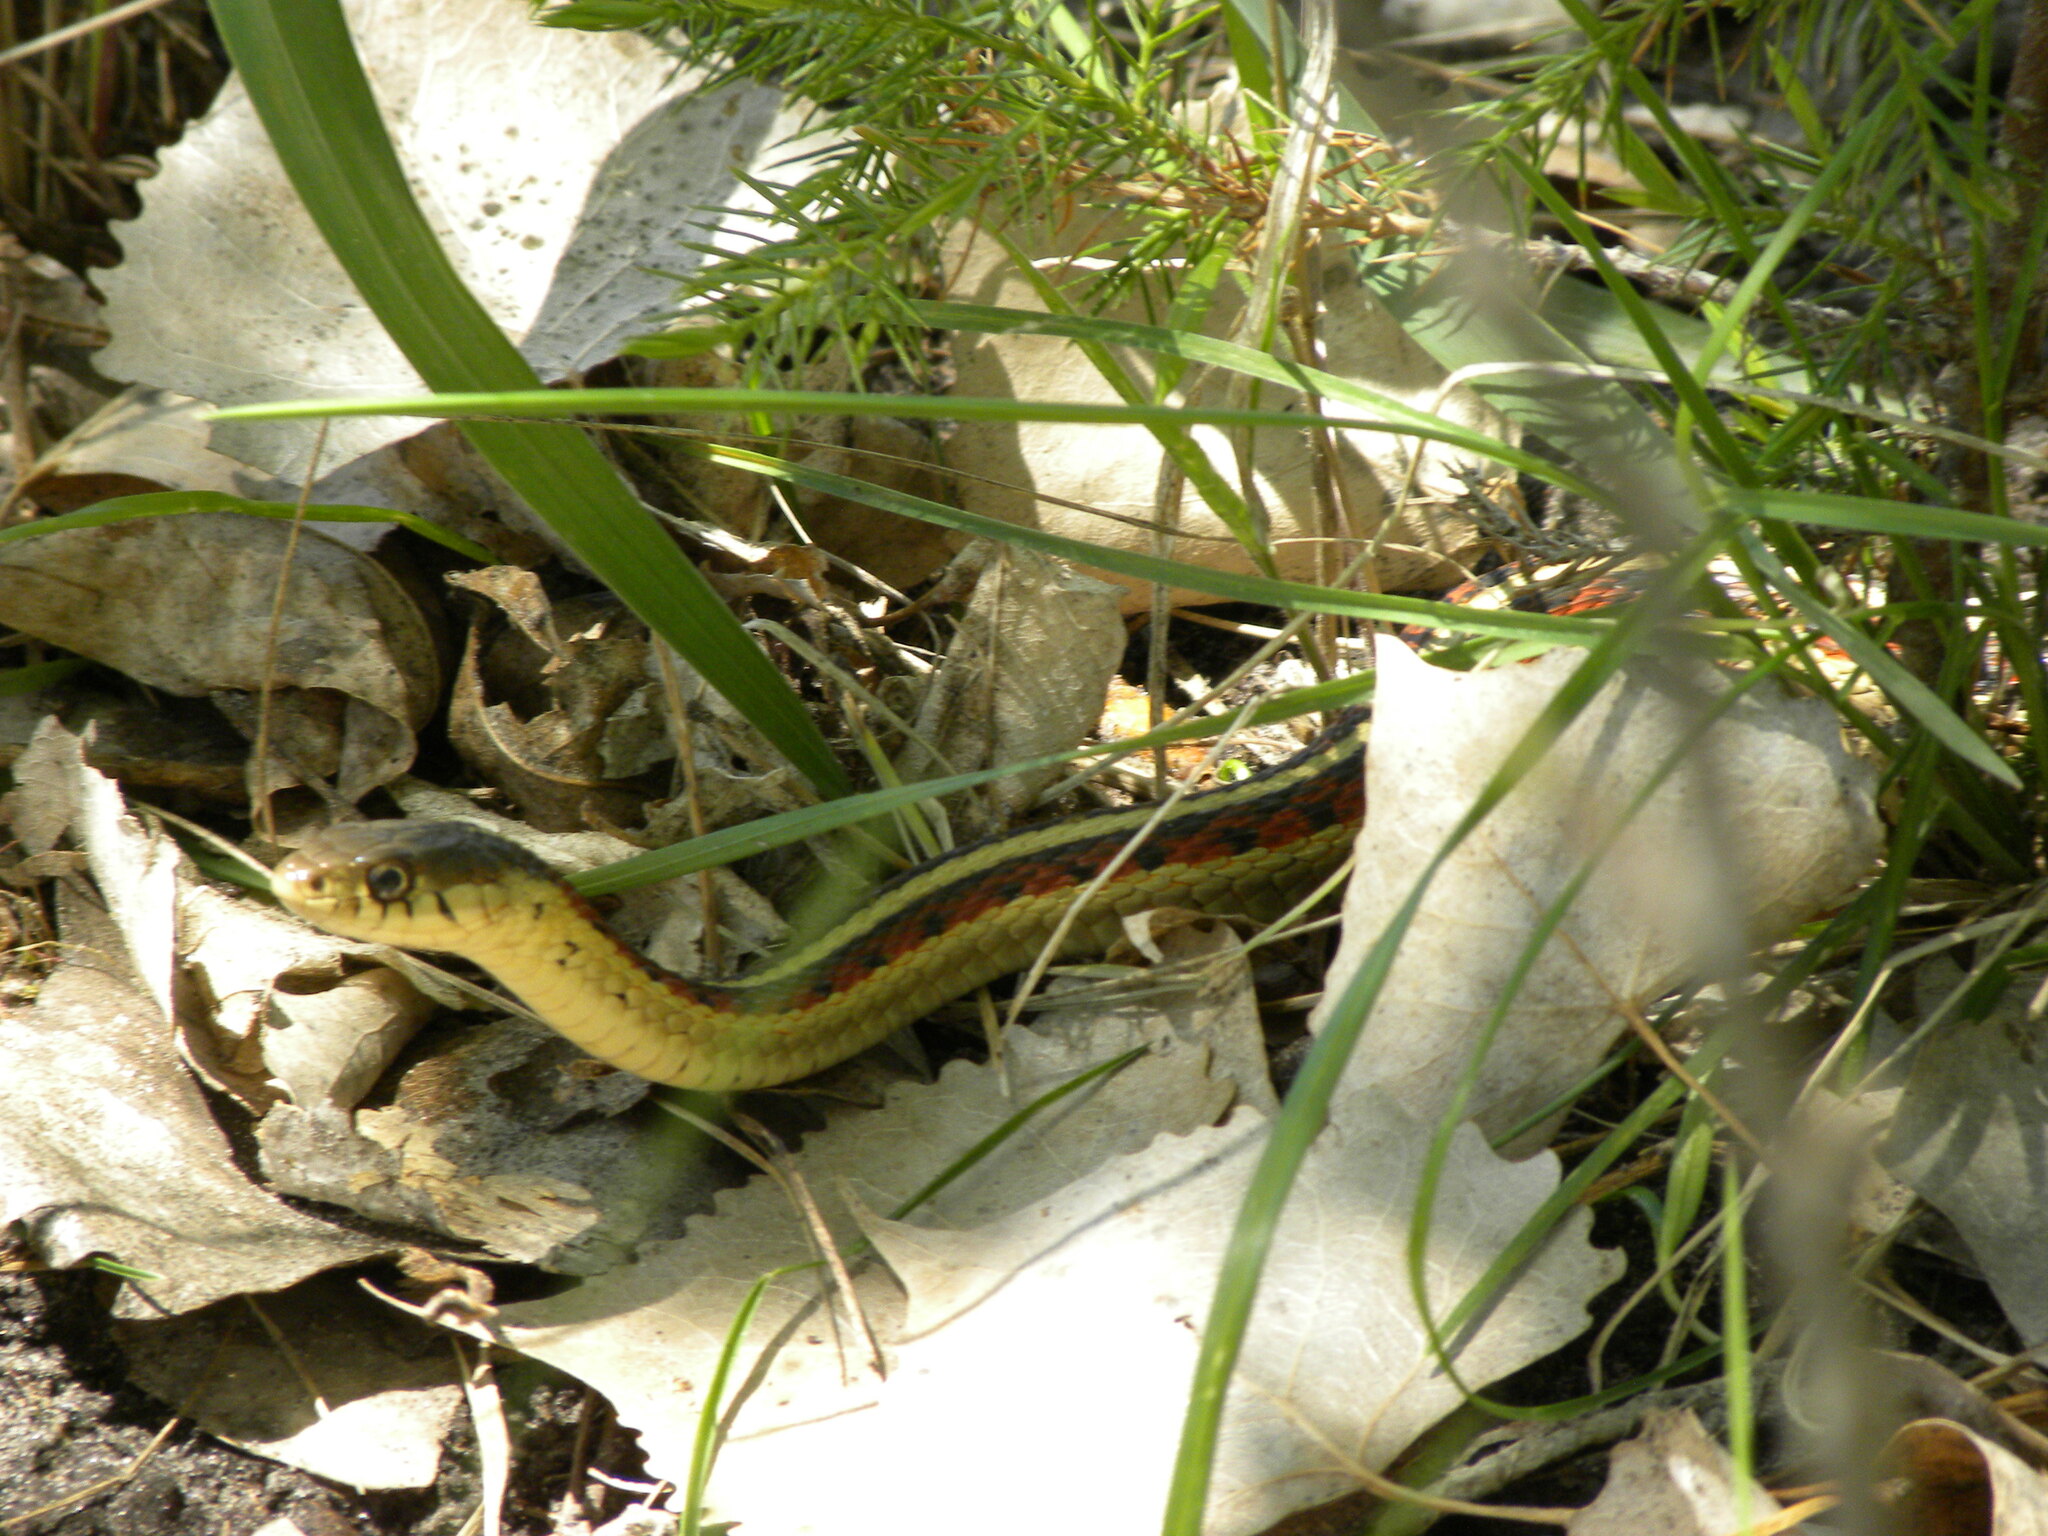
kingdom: Animalia
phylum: Chordata
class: Squamata
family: Colubridae
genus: Thamnophis
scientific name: Thamnophis sirtalis
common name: Common garter snake
